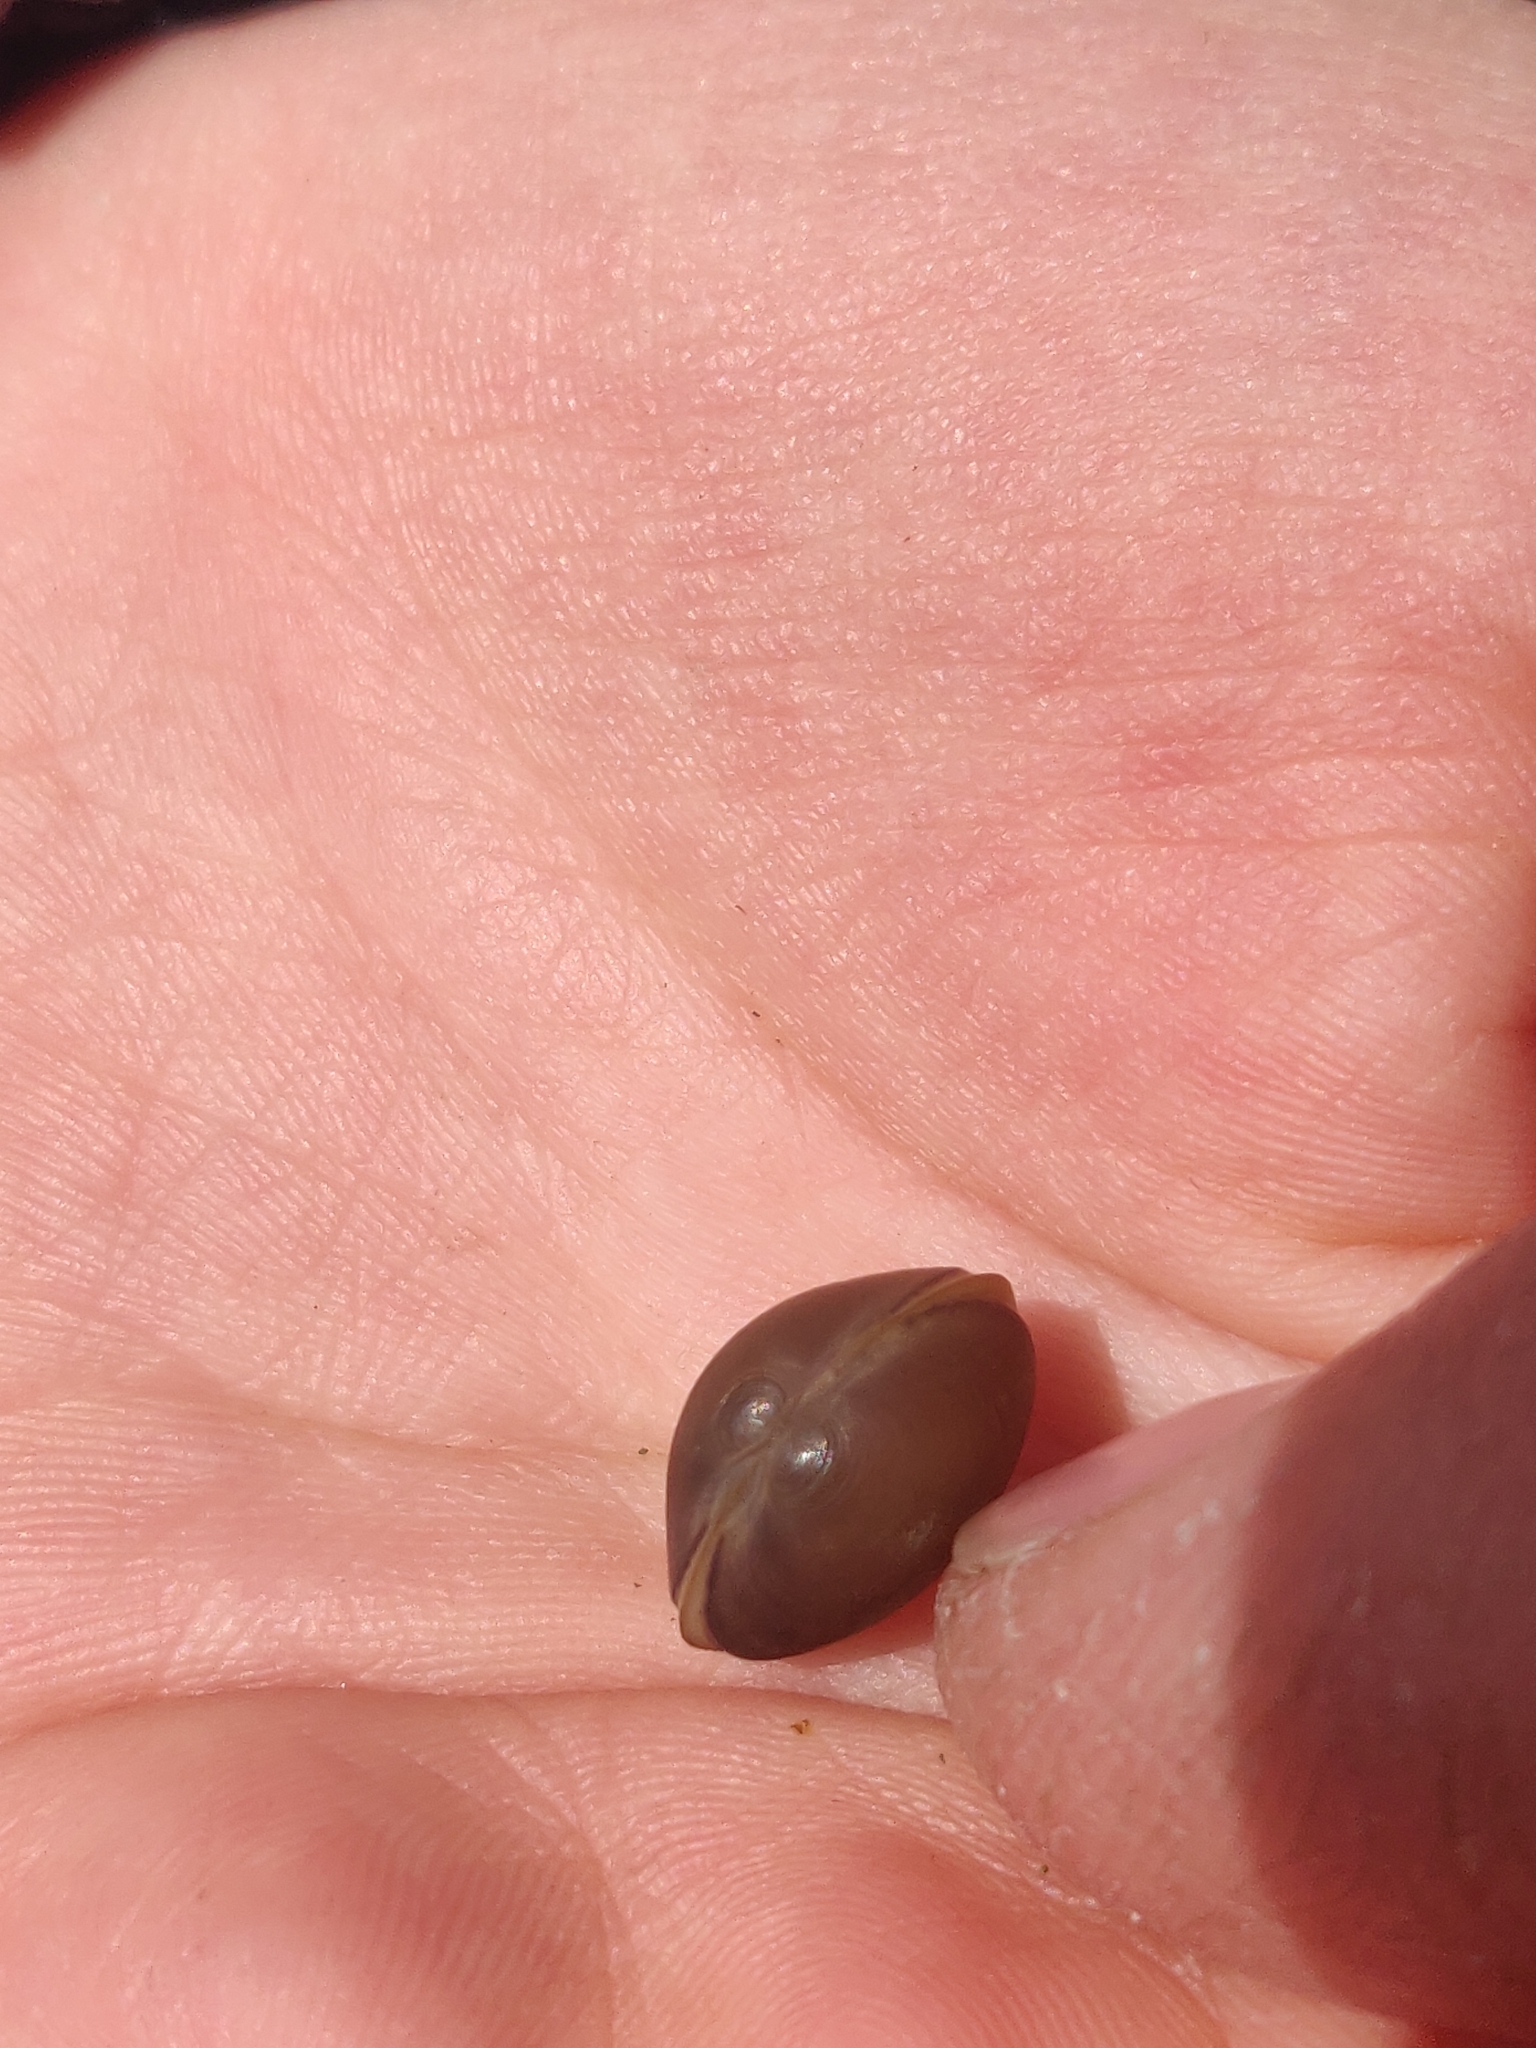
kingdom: Animalia
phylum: Mollusca
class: Bivalvia
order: Sphaeriida
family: Sphaeriidae
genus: Musculium
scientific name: Musculium lacustre
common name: Lake fingernailclam
